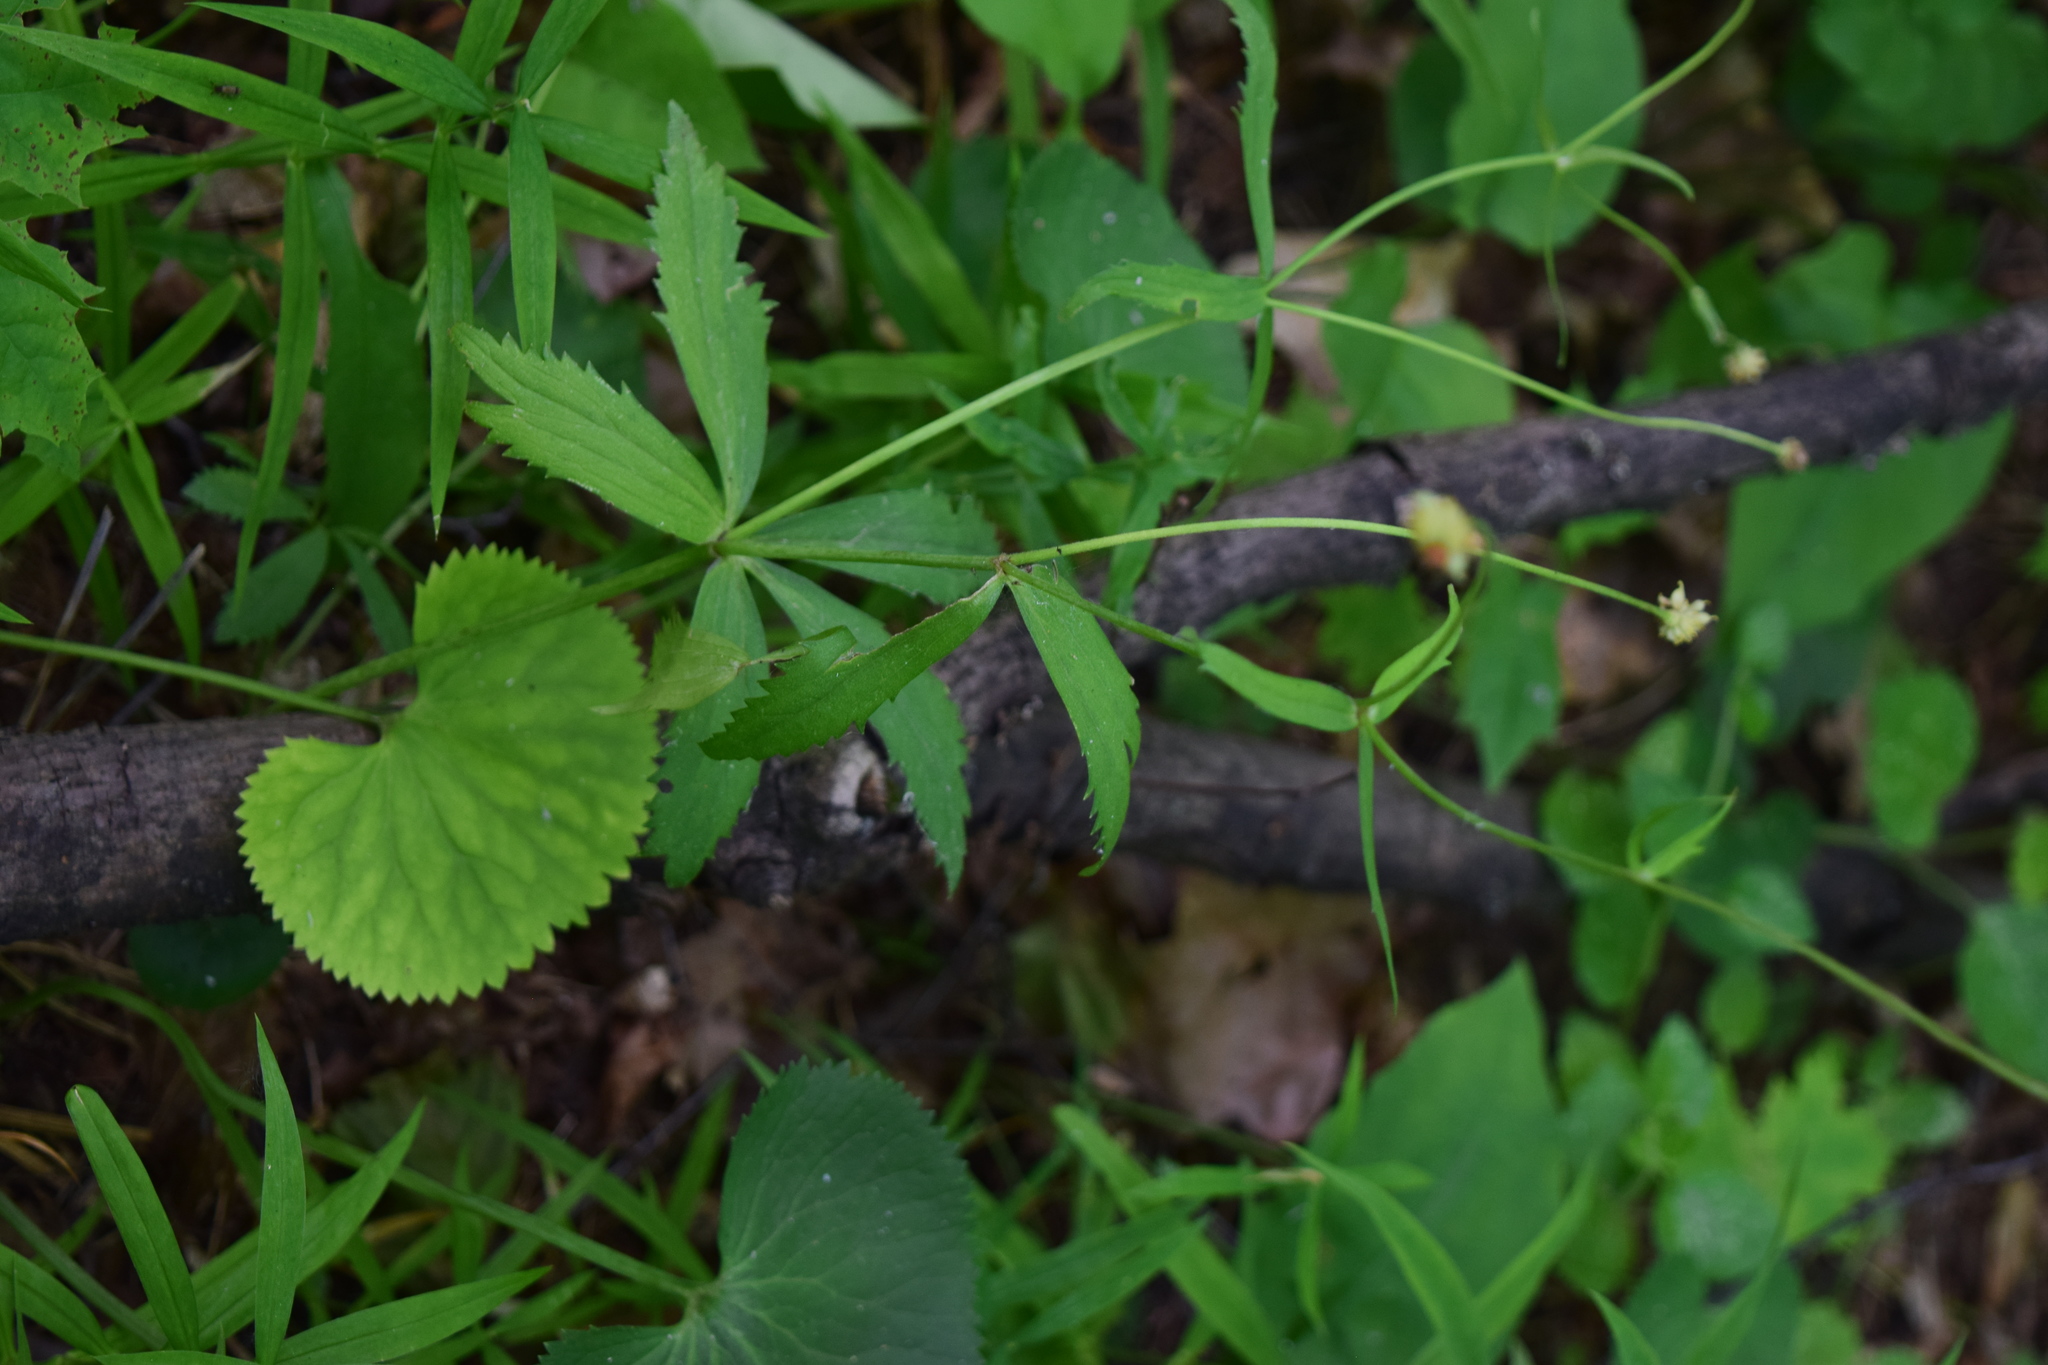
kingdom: Plantae
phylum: Tracheophyta
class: Magnoliopsida
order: Ranunculales
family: Ranunculaceae
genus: Ranunculus
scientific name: Ranunculus cassubicus
